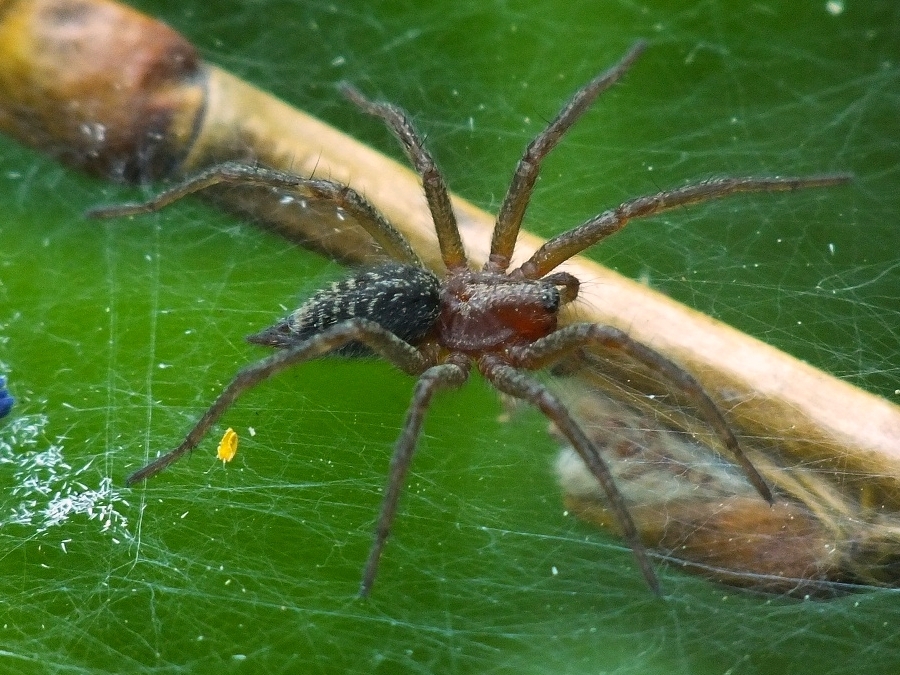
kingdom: Animalia
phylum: Arthropoda
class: Arachnida
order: Araneae
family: Agelenidae
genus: Agelena
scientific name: Agelena labyrinthica
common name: Labyrinth spider
